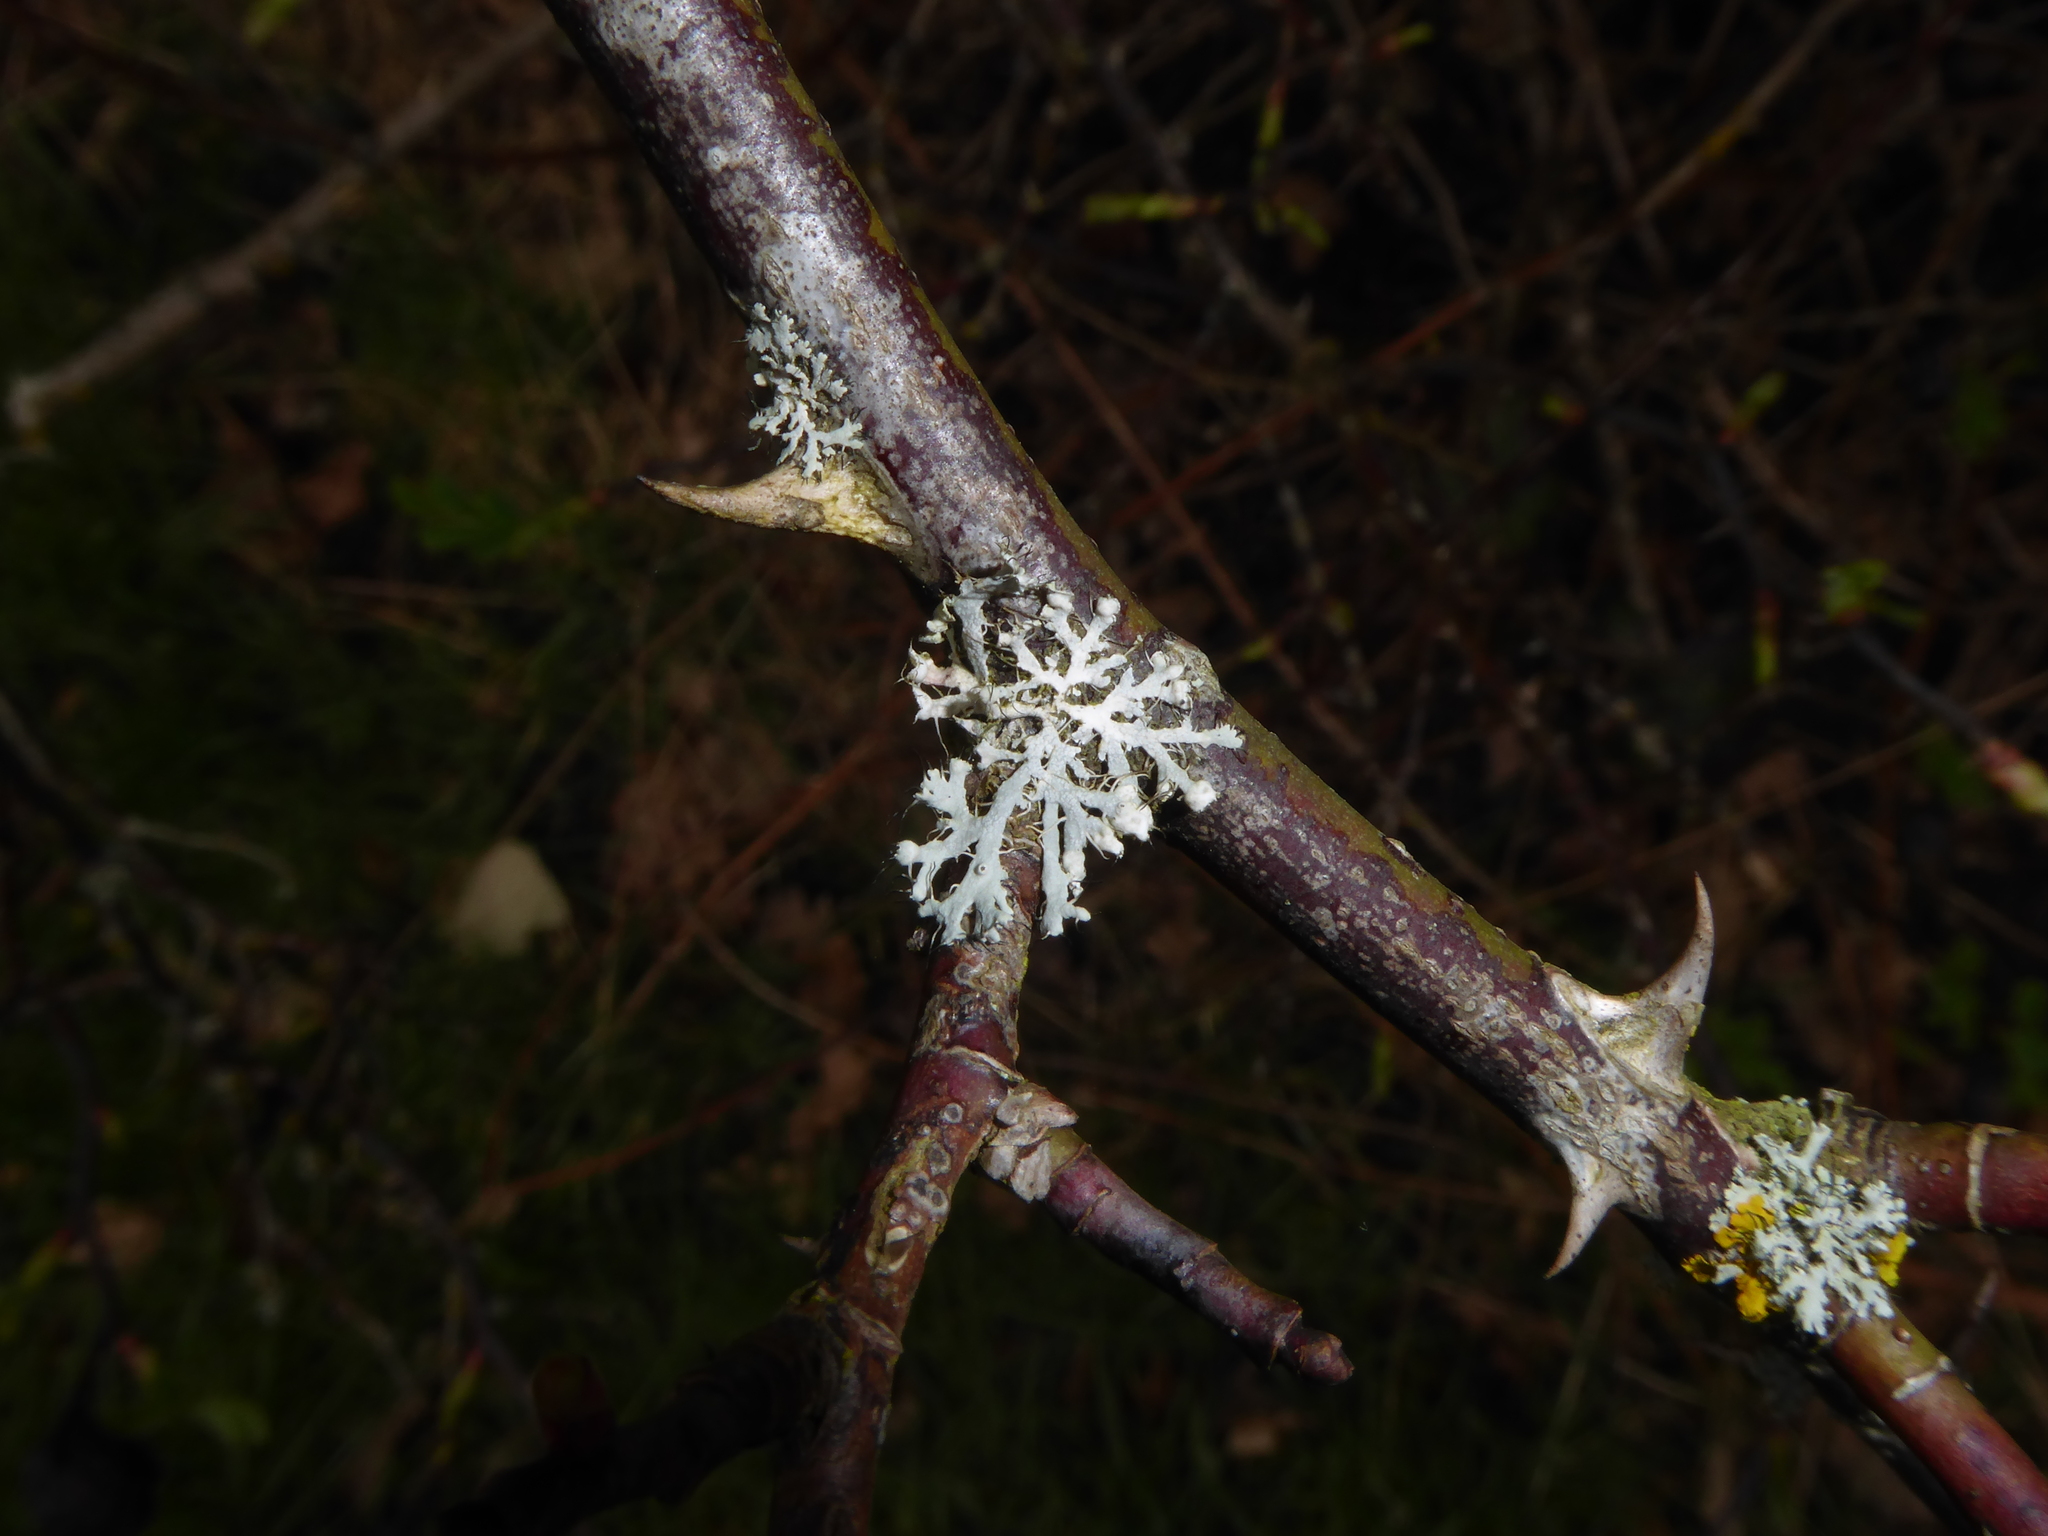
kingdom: Fungi
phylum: Ascomycota
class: Lecanoromycetes
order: Caliciales
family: Physciaceae
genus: Physcia
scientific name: Physcia adscendens
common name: Hooded rosette lichen
